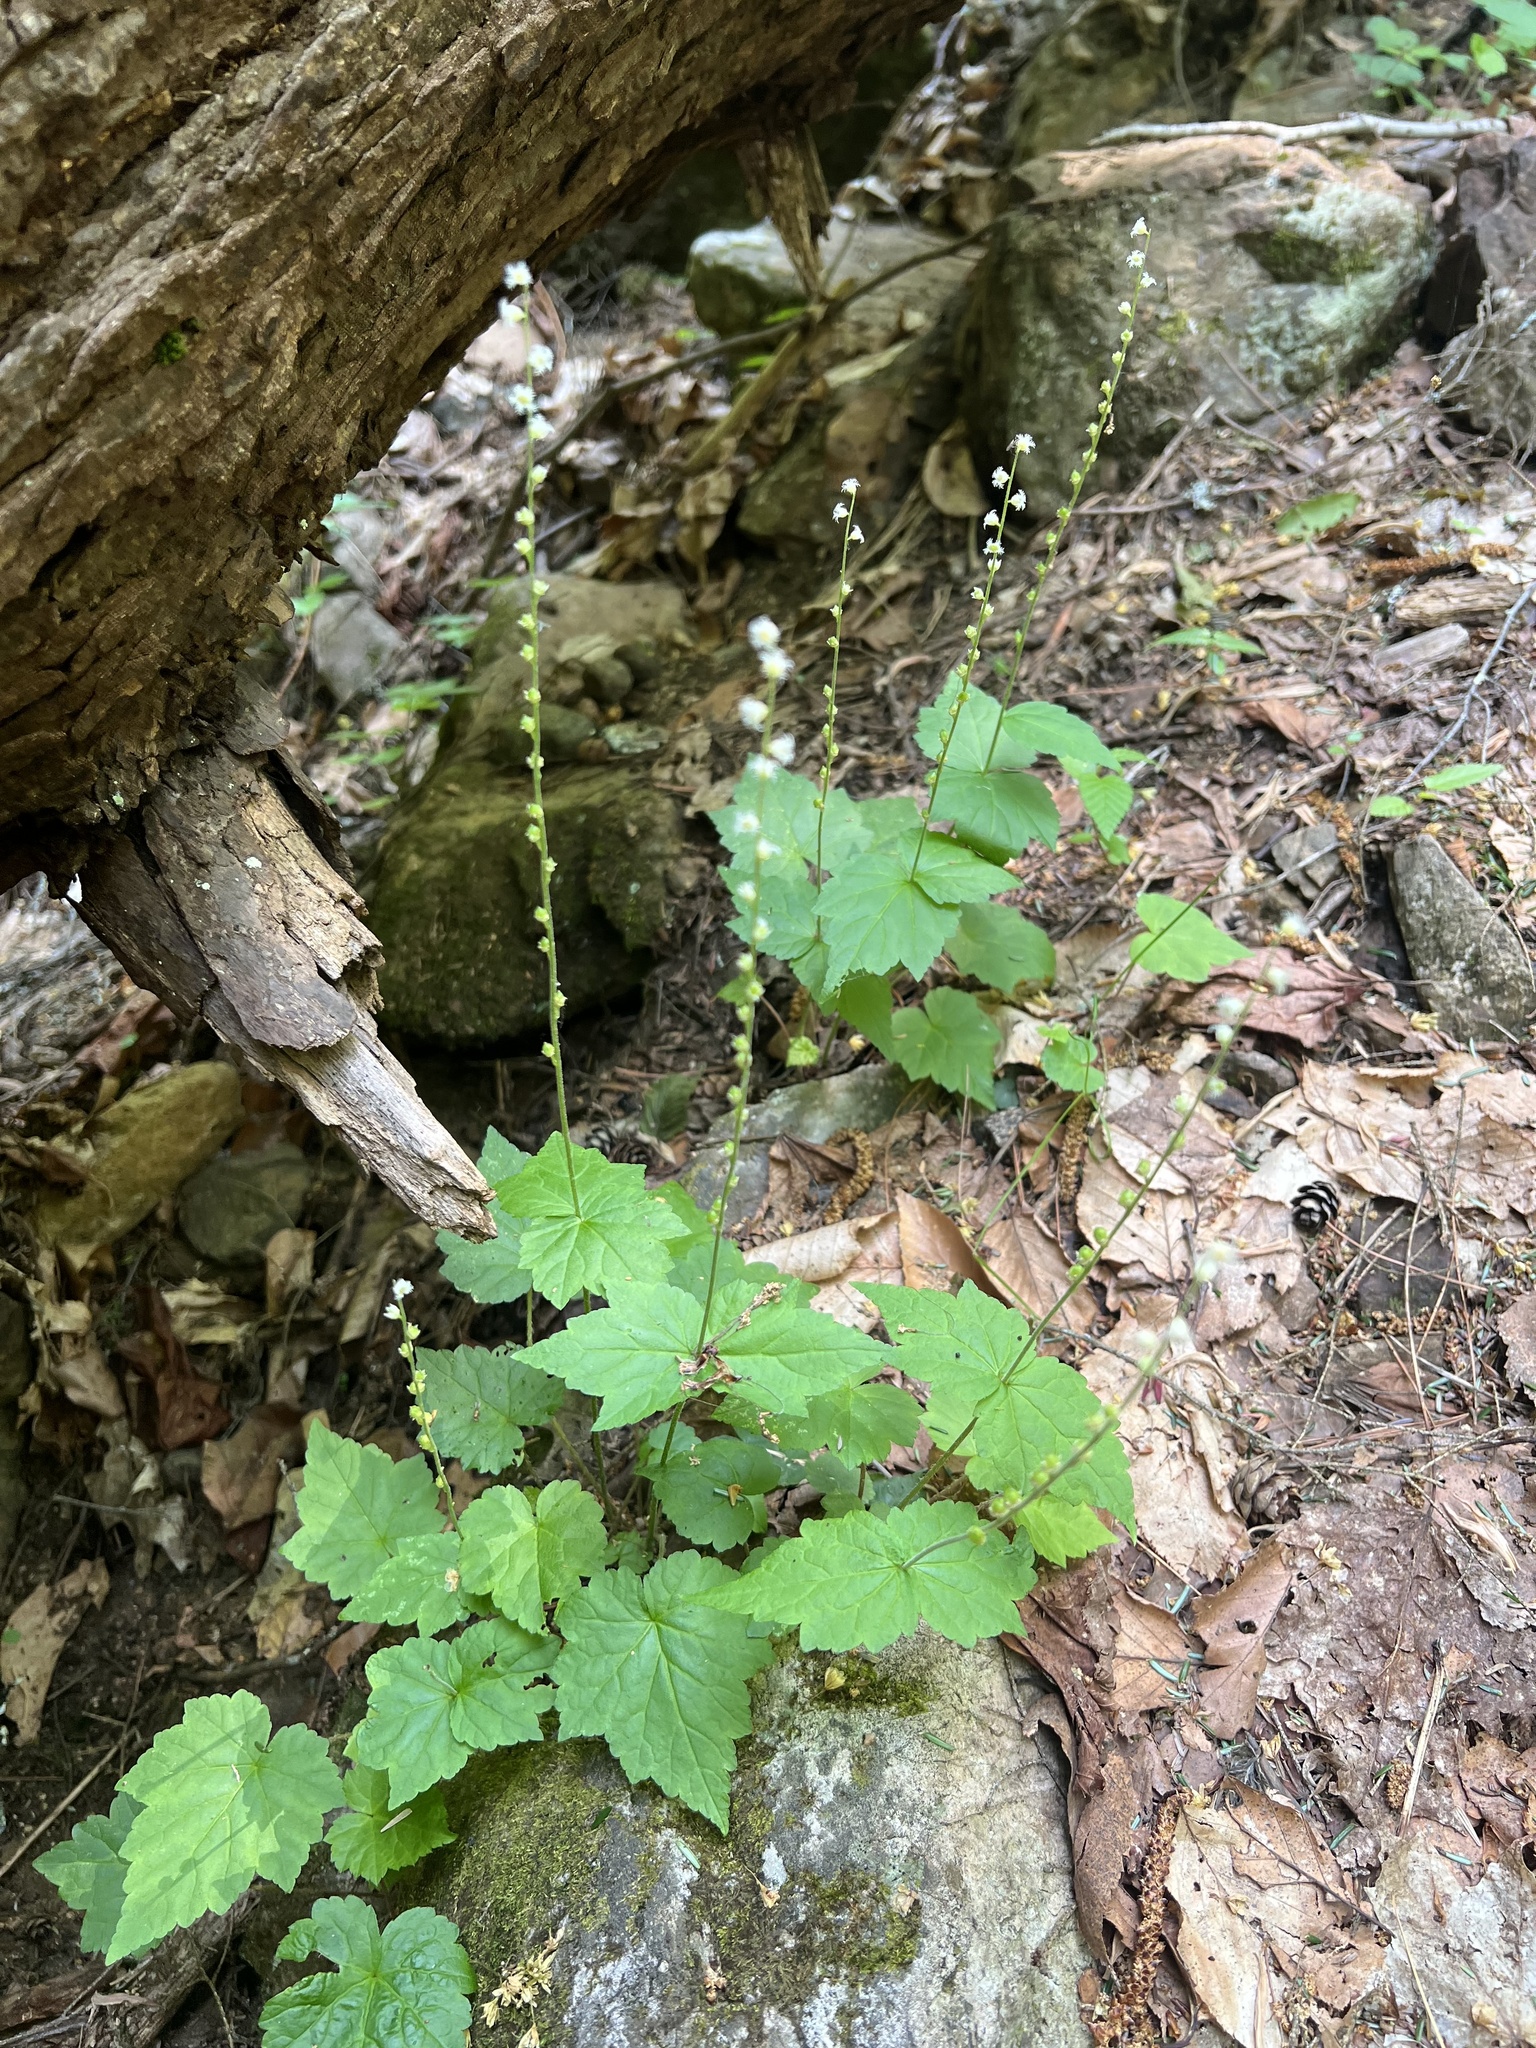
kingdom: Plantae
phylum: Tracheophyta
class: Magnoliopsida
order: Saxifragales
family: Saxifragaceae
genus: Mitella
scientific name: Mitella diphylla
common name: Coolwort
